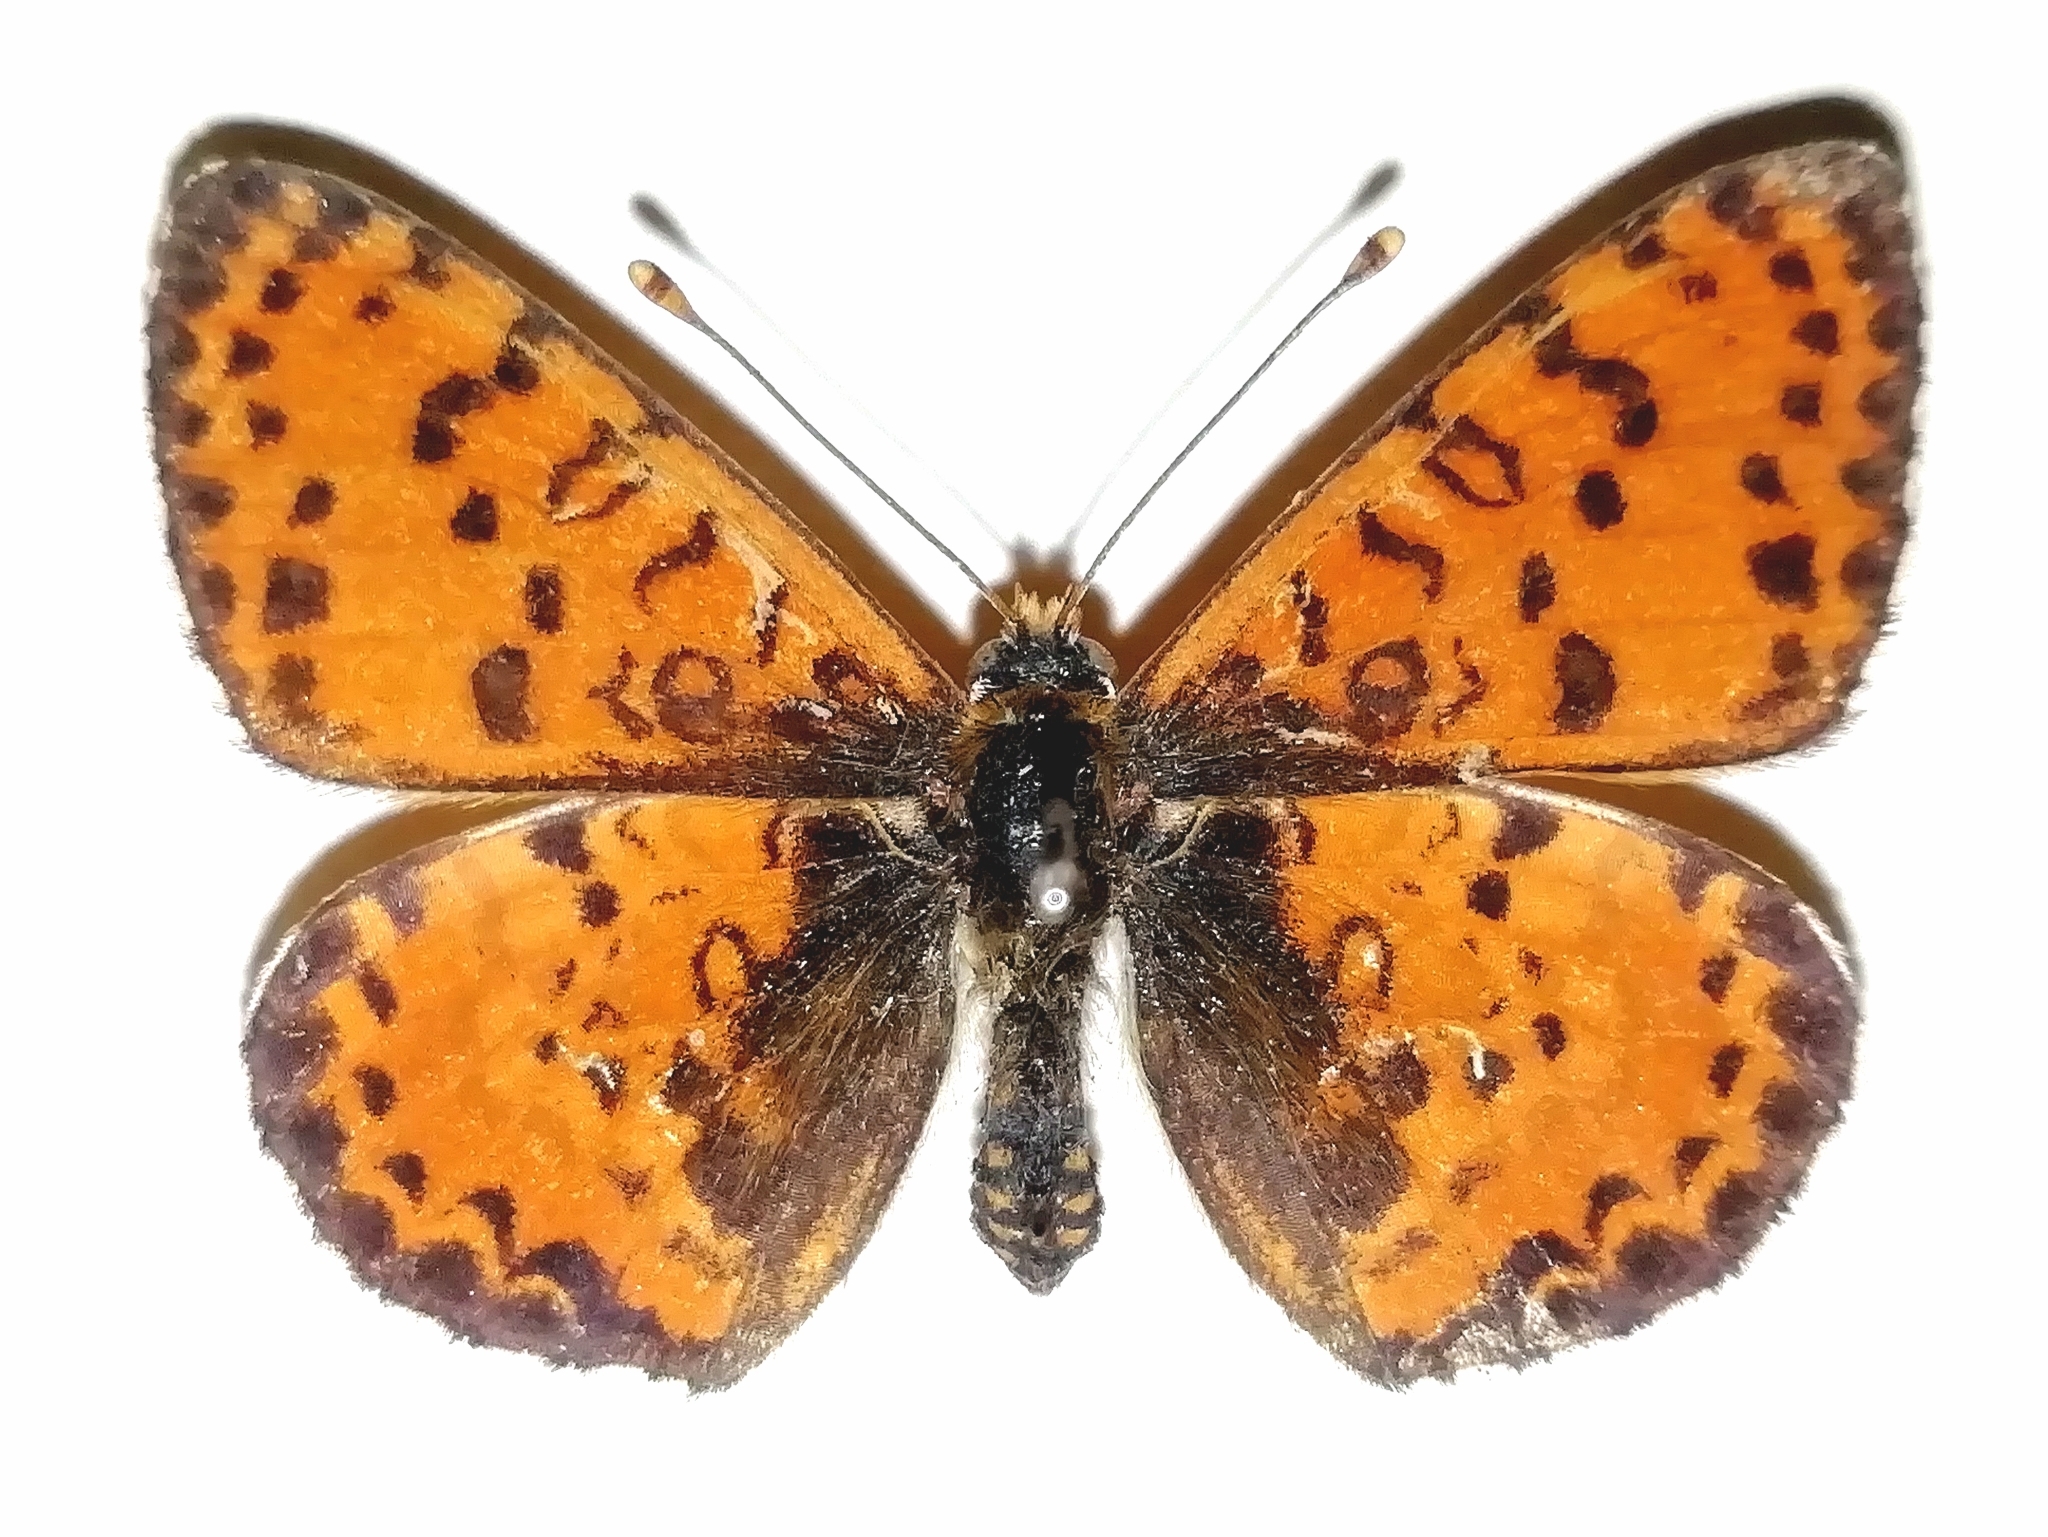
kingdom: Animalia
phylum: Arthropoda
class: Insecta
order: Lepidoptera
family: Nymphalidae
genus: Melitaea
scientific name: Melitaea didyma
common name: Spotted fritillary
